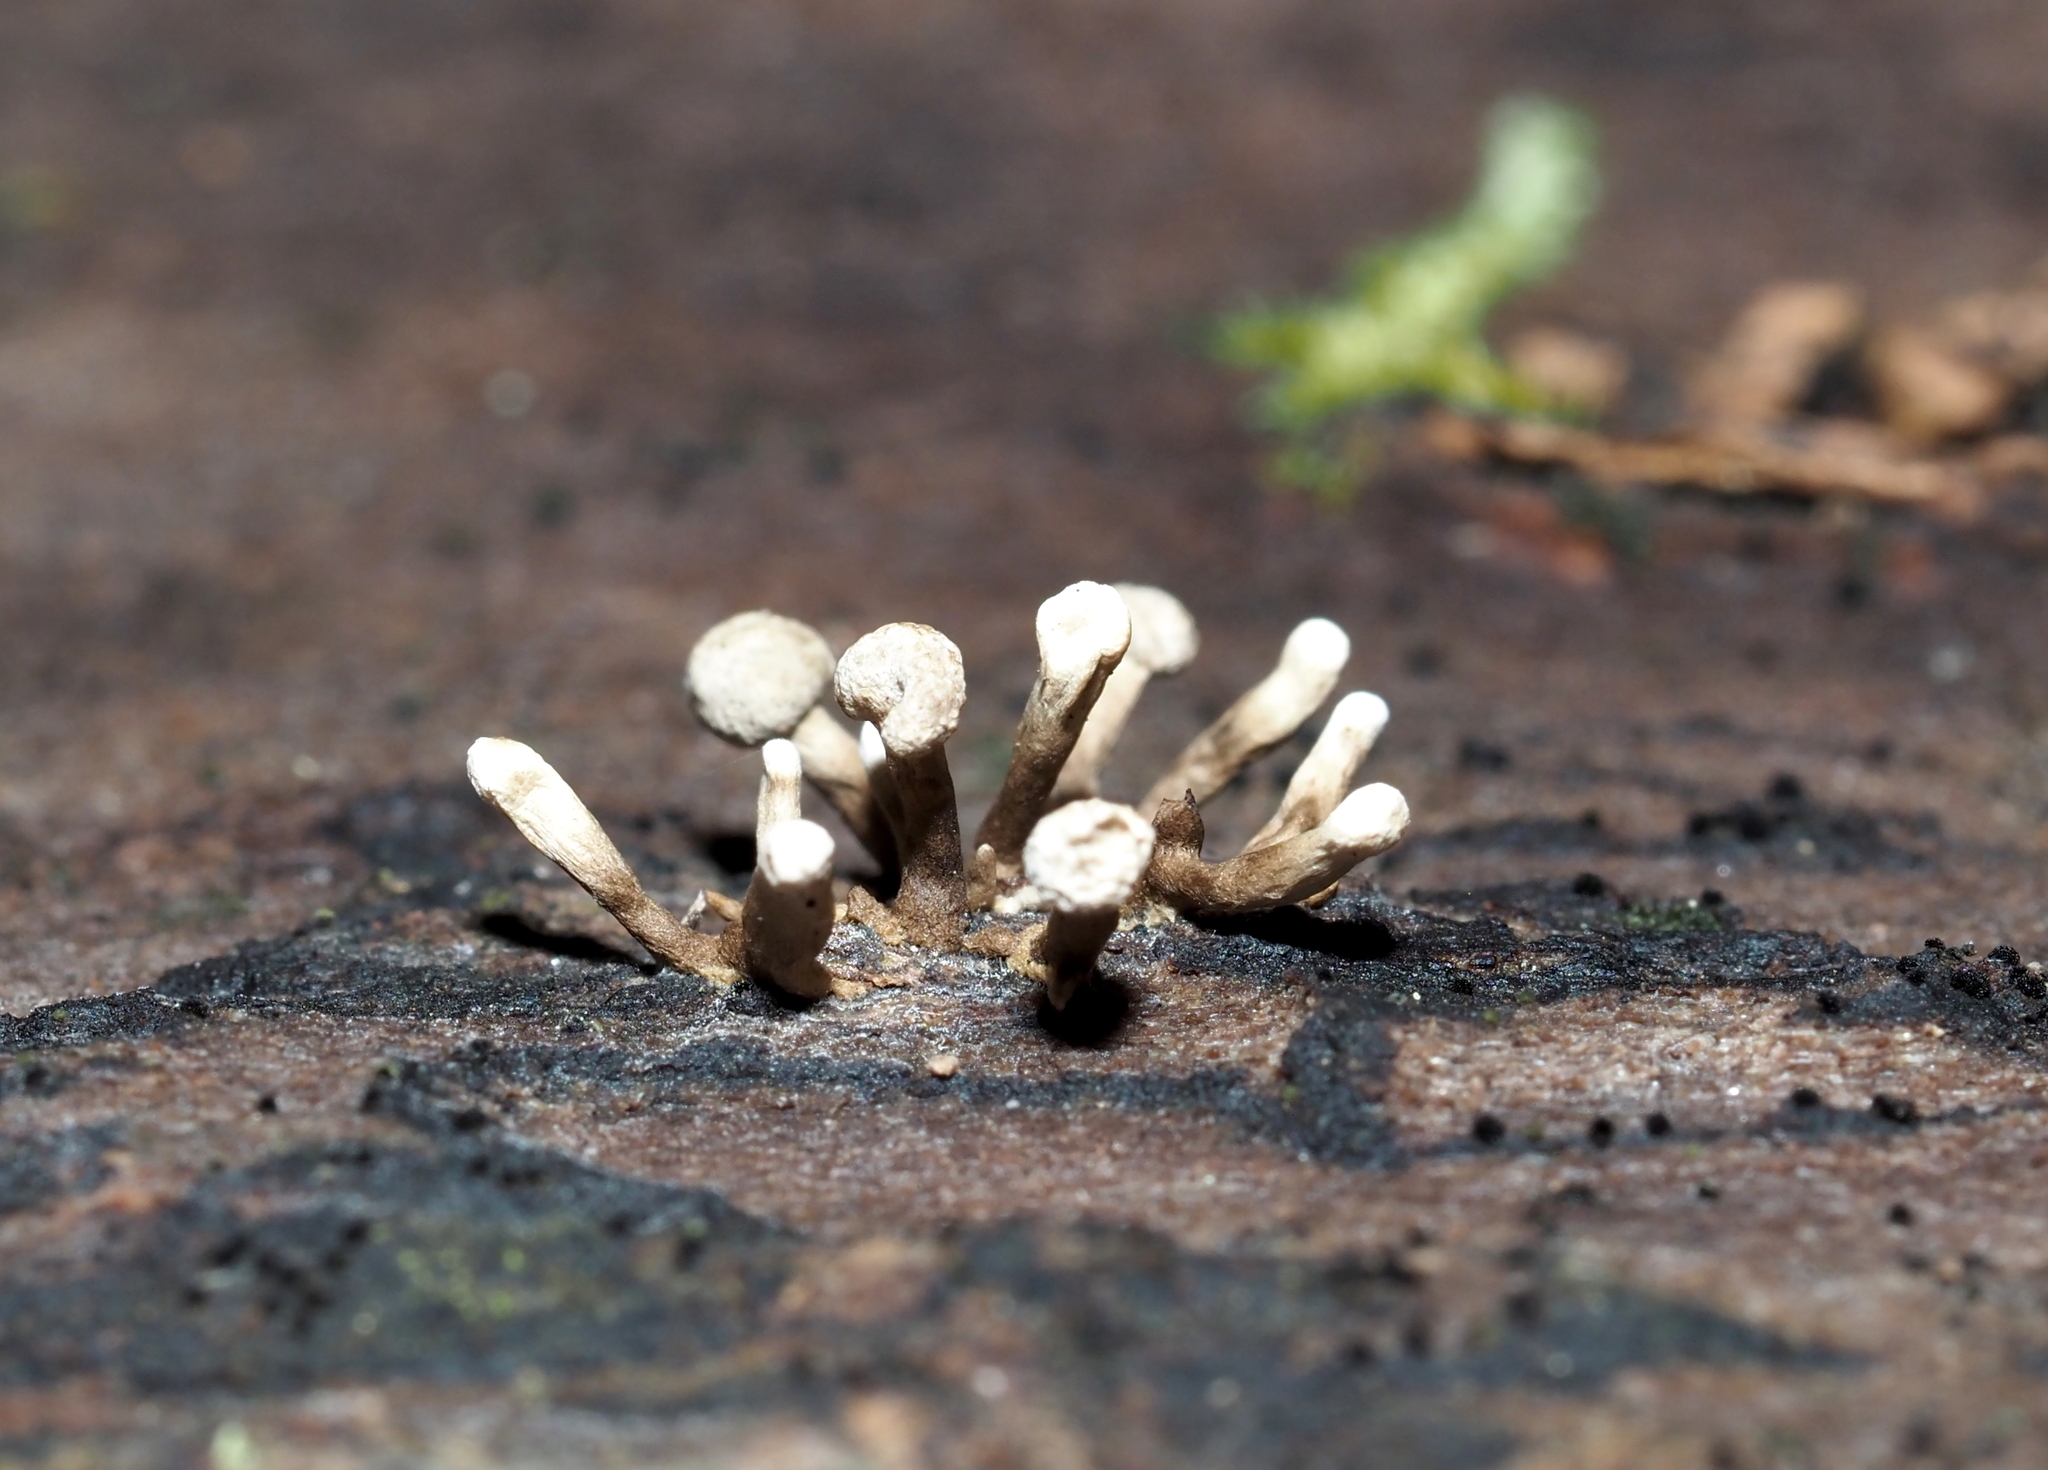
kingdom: Fungi
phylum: Basidiomycota
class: Atractiellomycetes
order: Atractiellales
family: Phleogenaceae
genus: Phleogena
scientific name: Phleogena faginea
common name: Fenugreek stalkball
